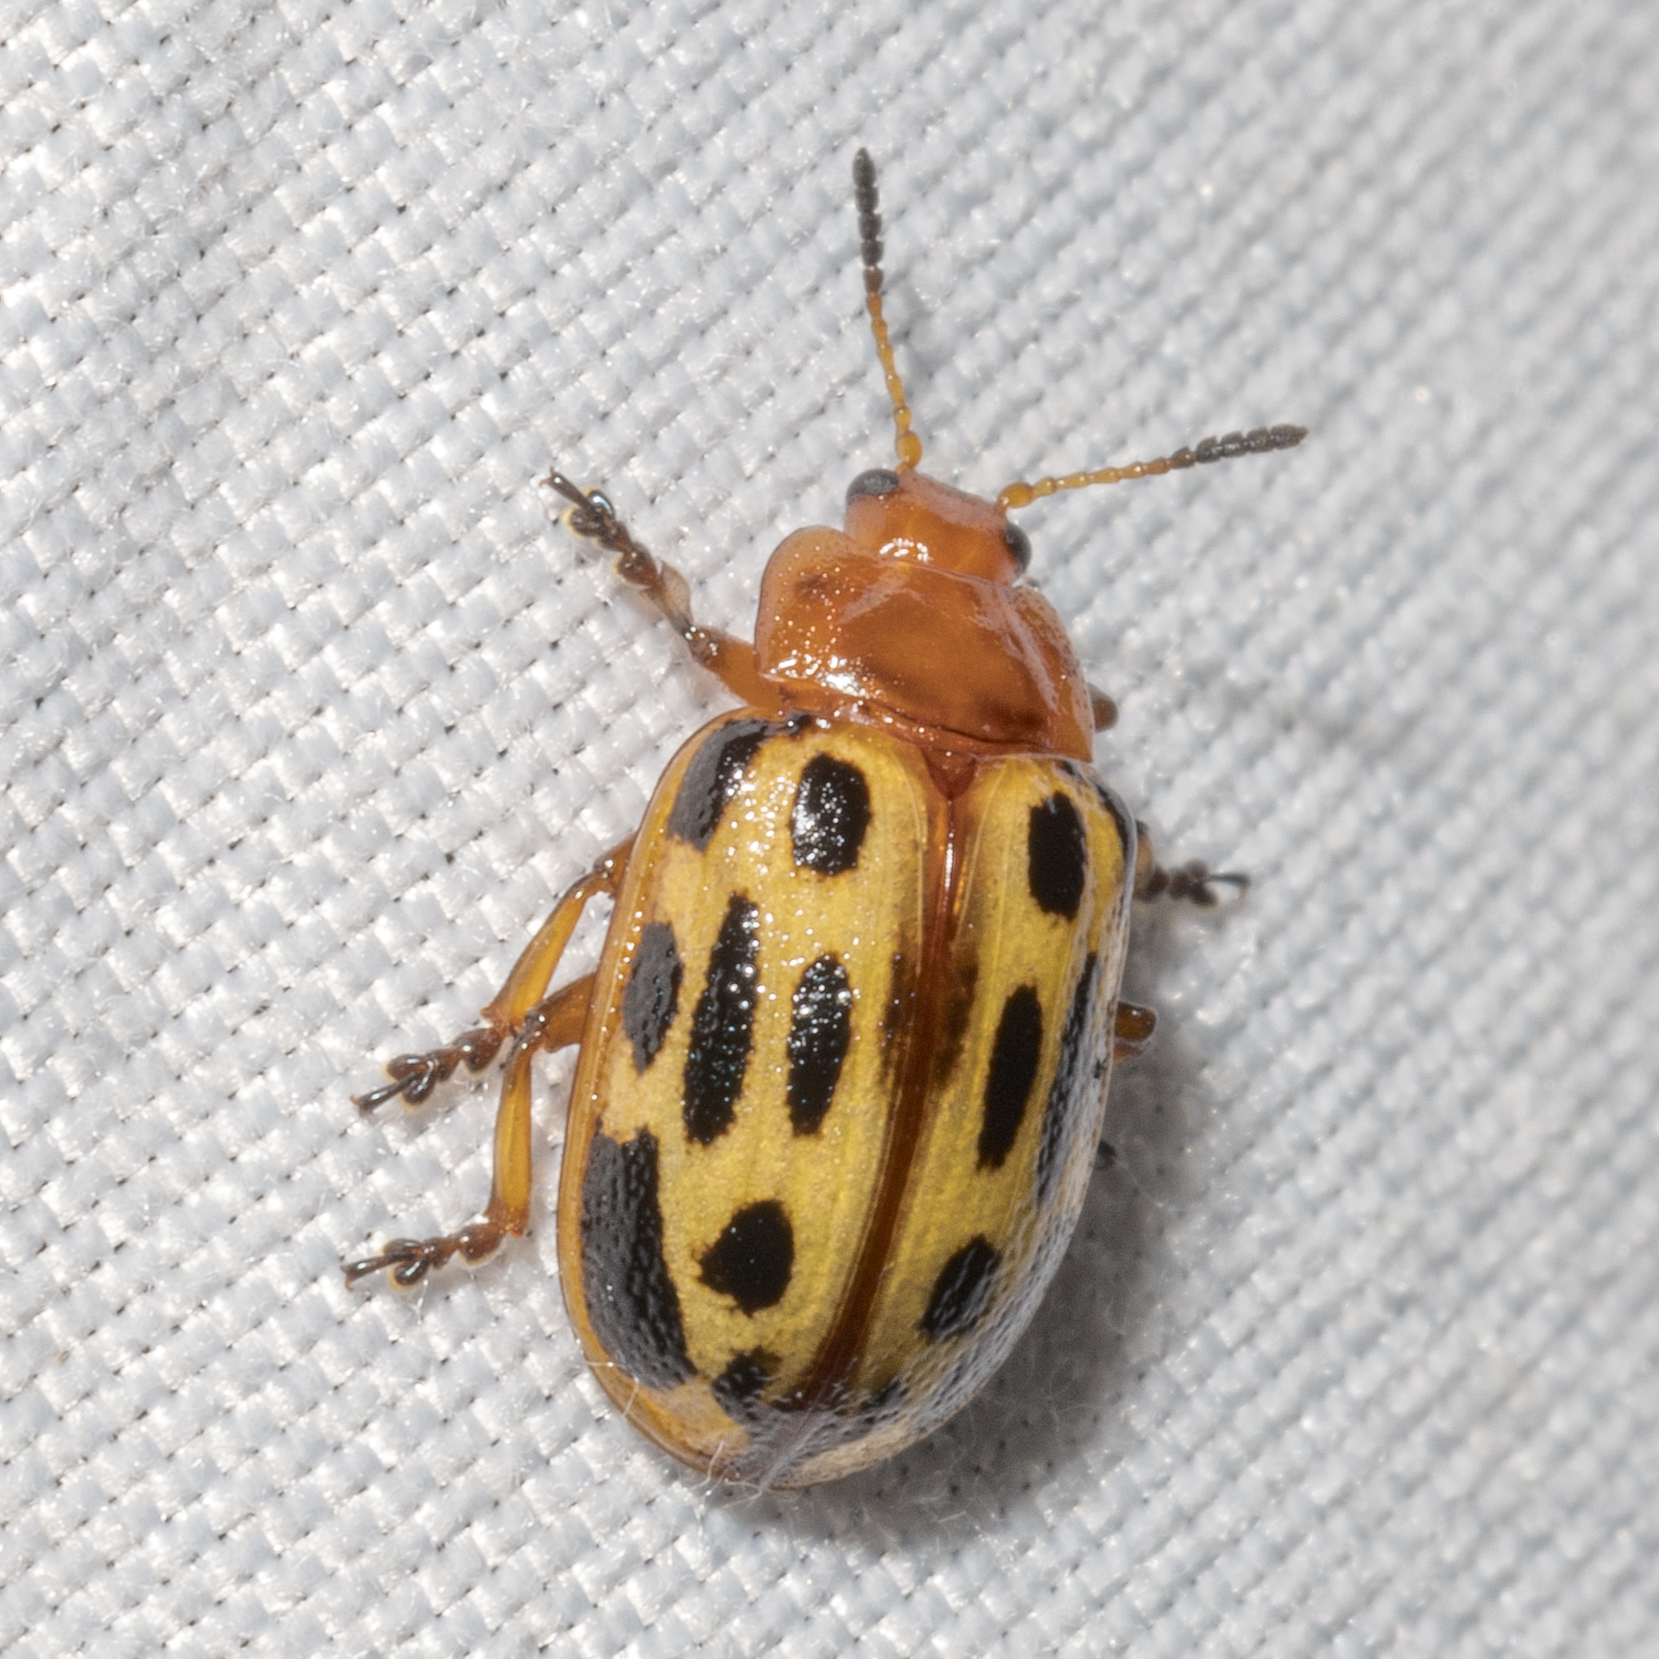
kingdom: Animalia
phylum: Arthropoda
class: Insecta
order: Coleoptera
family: Chrysomelidae
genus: Chrysomela
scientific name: Chrysomela texana
